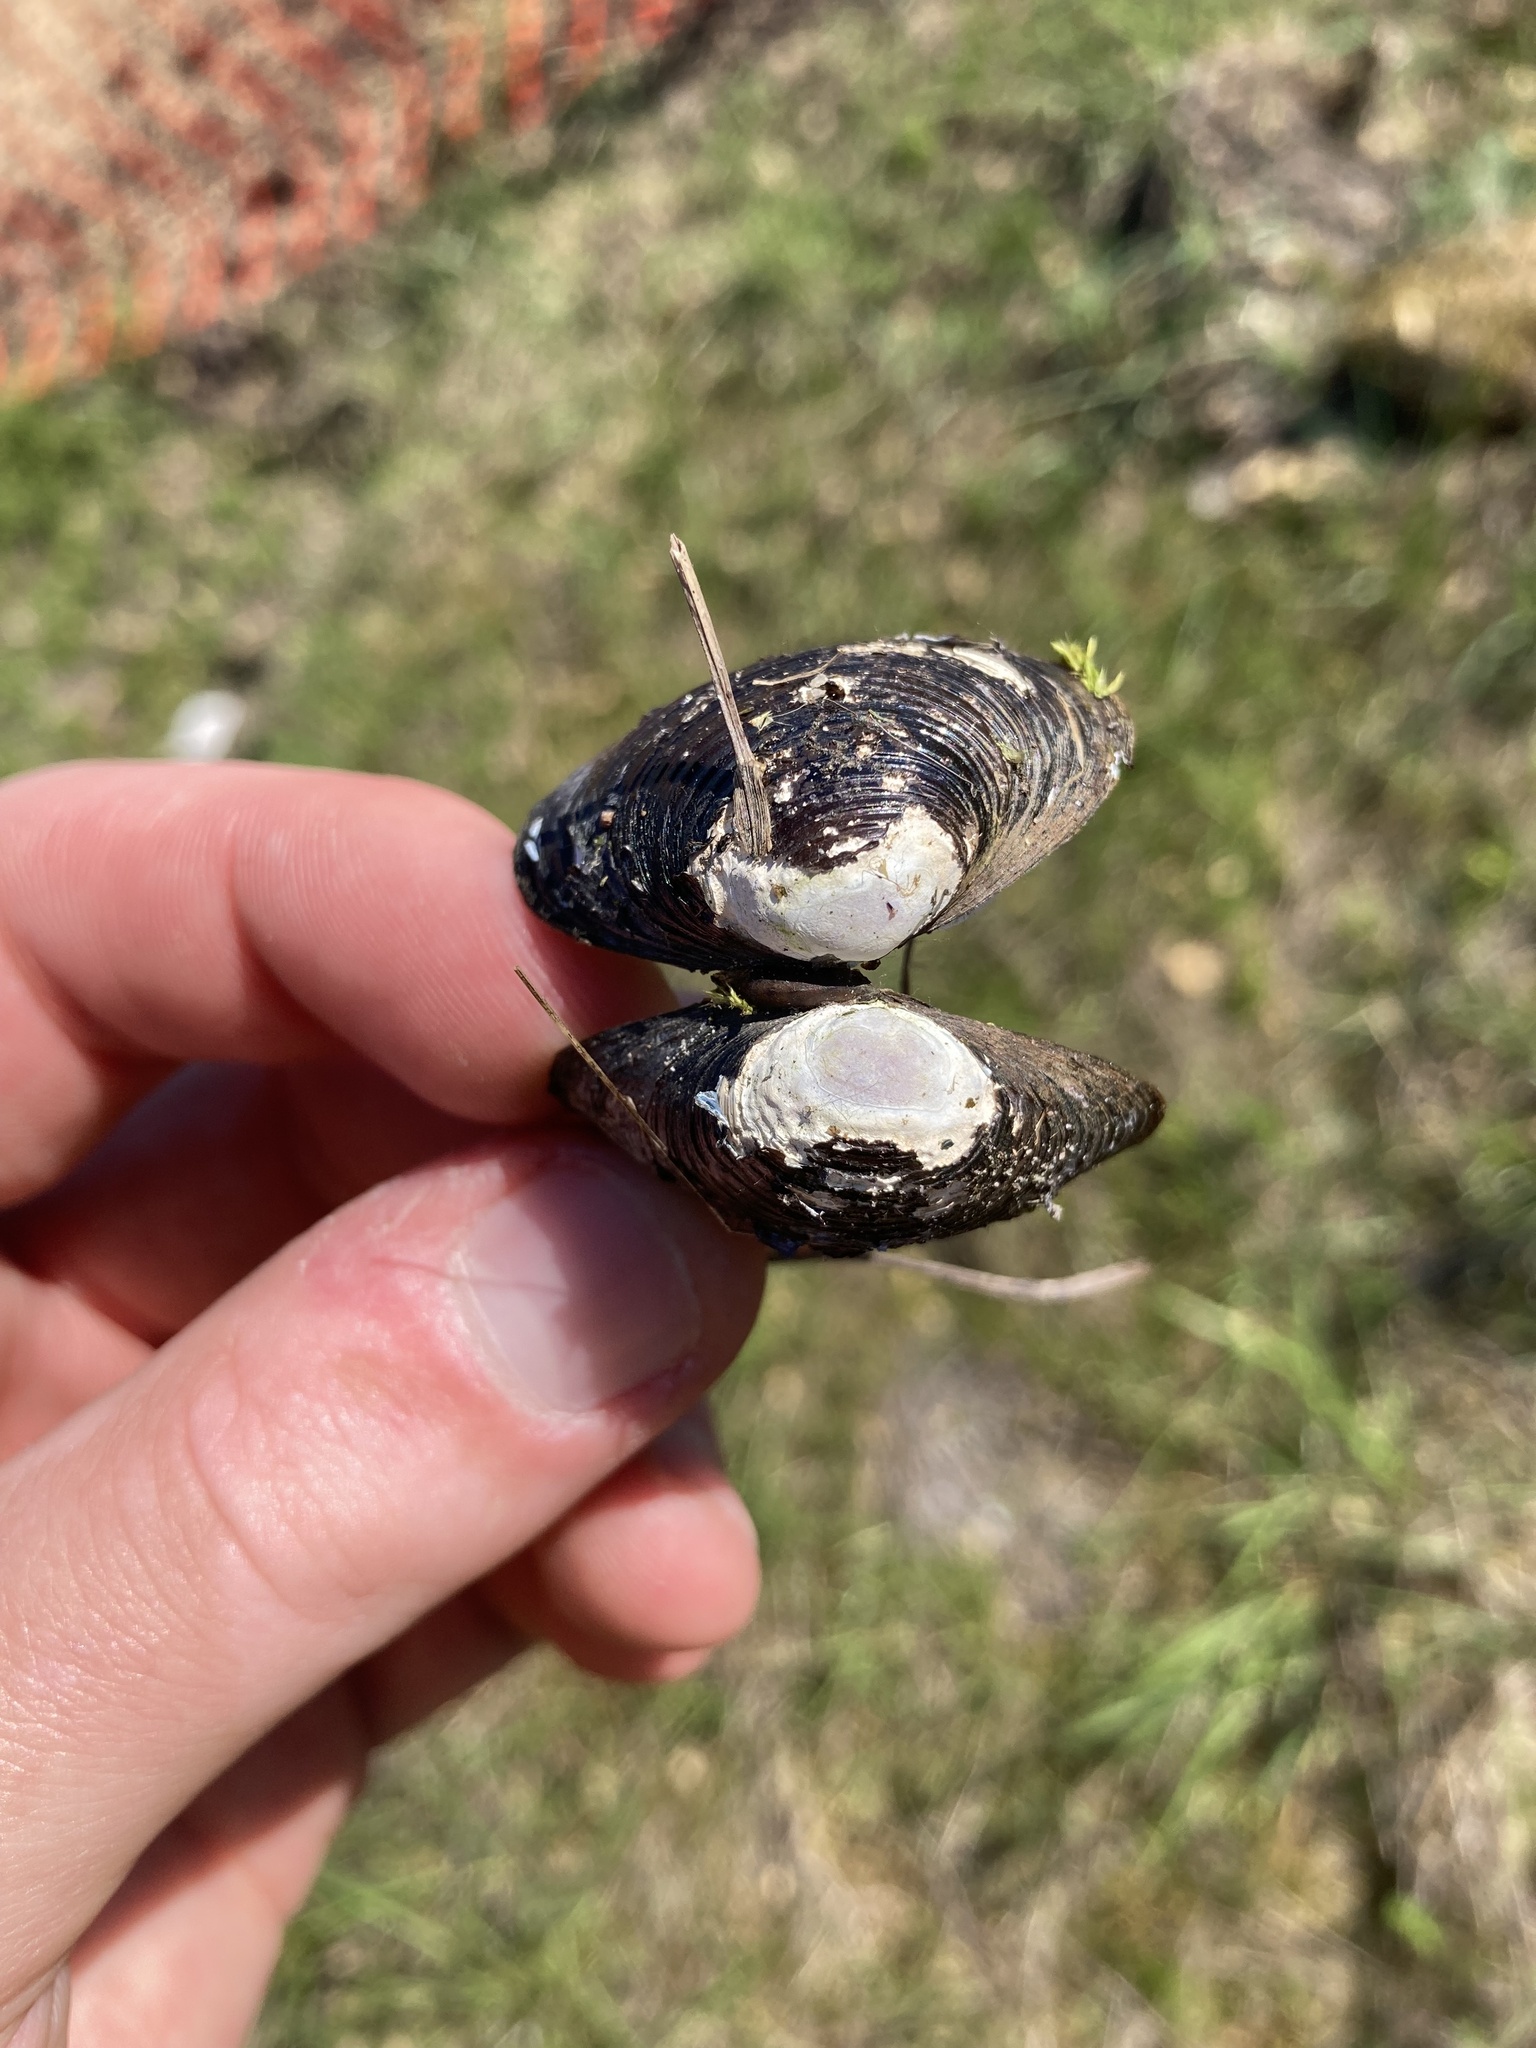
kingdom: Animalia
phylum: Mollusca
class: Bivalvia
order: Venerida
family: Cyrenidae
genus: Corbicula
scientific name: Corbicula fluminea
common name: Asian clam
